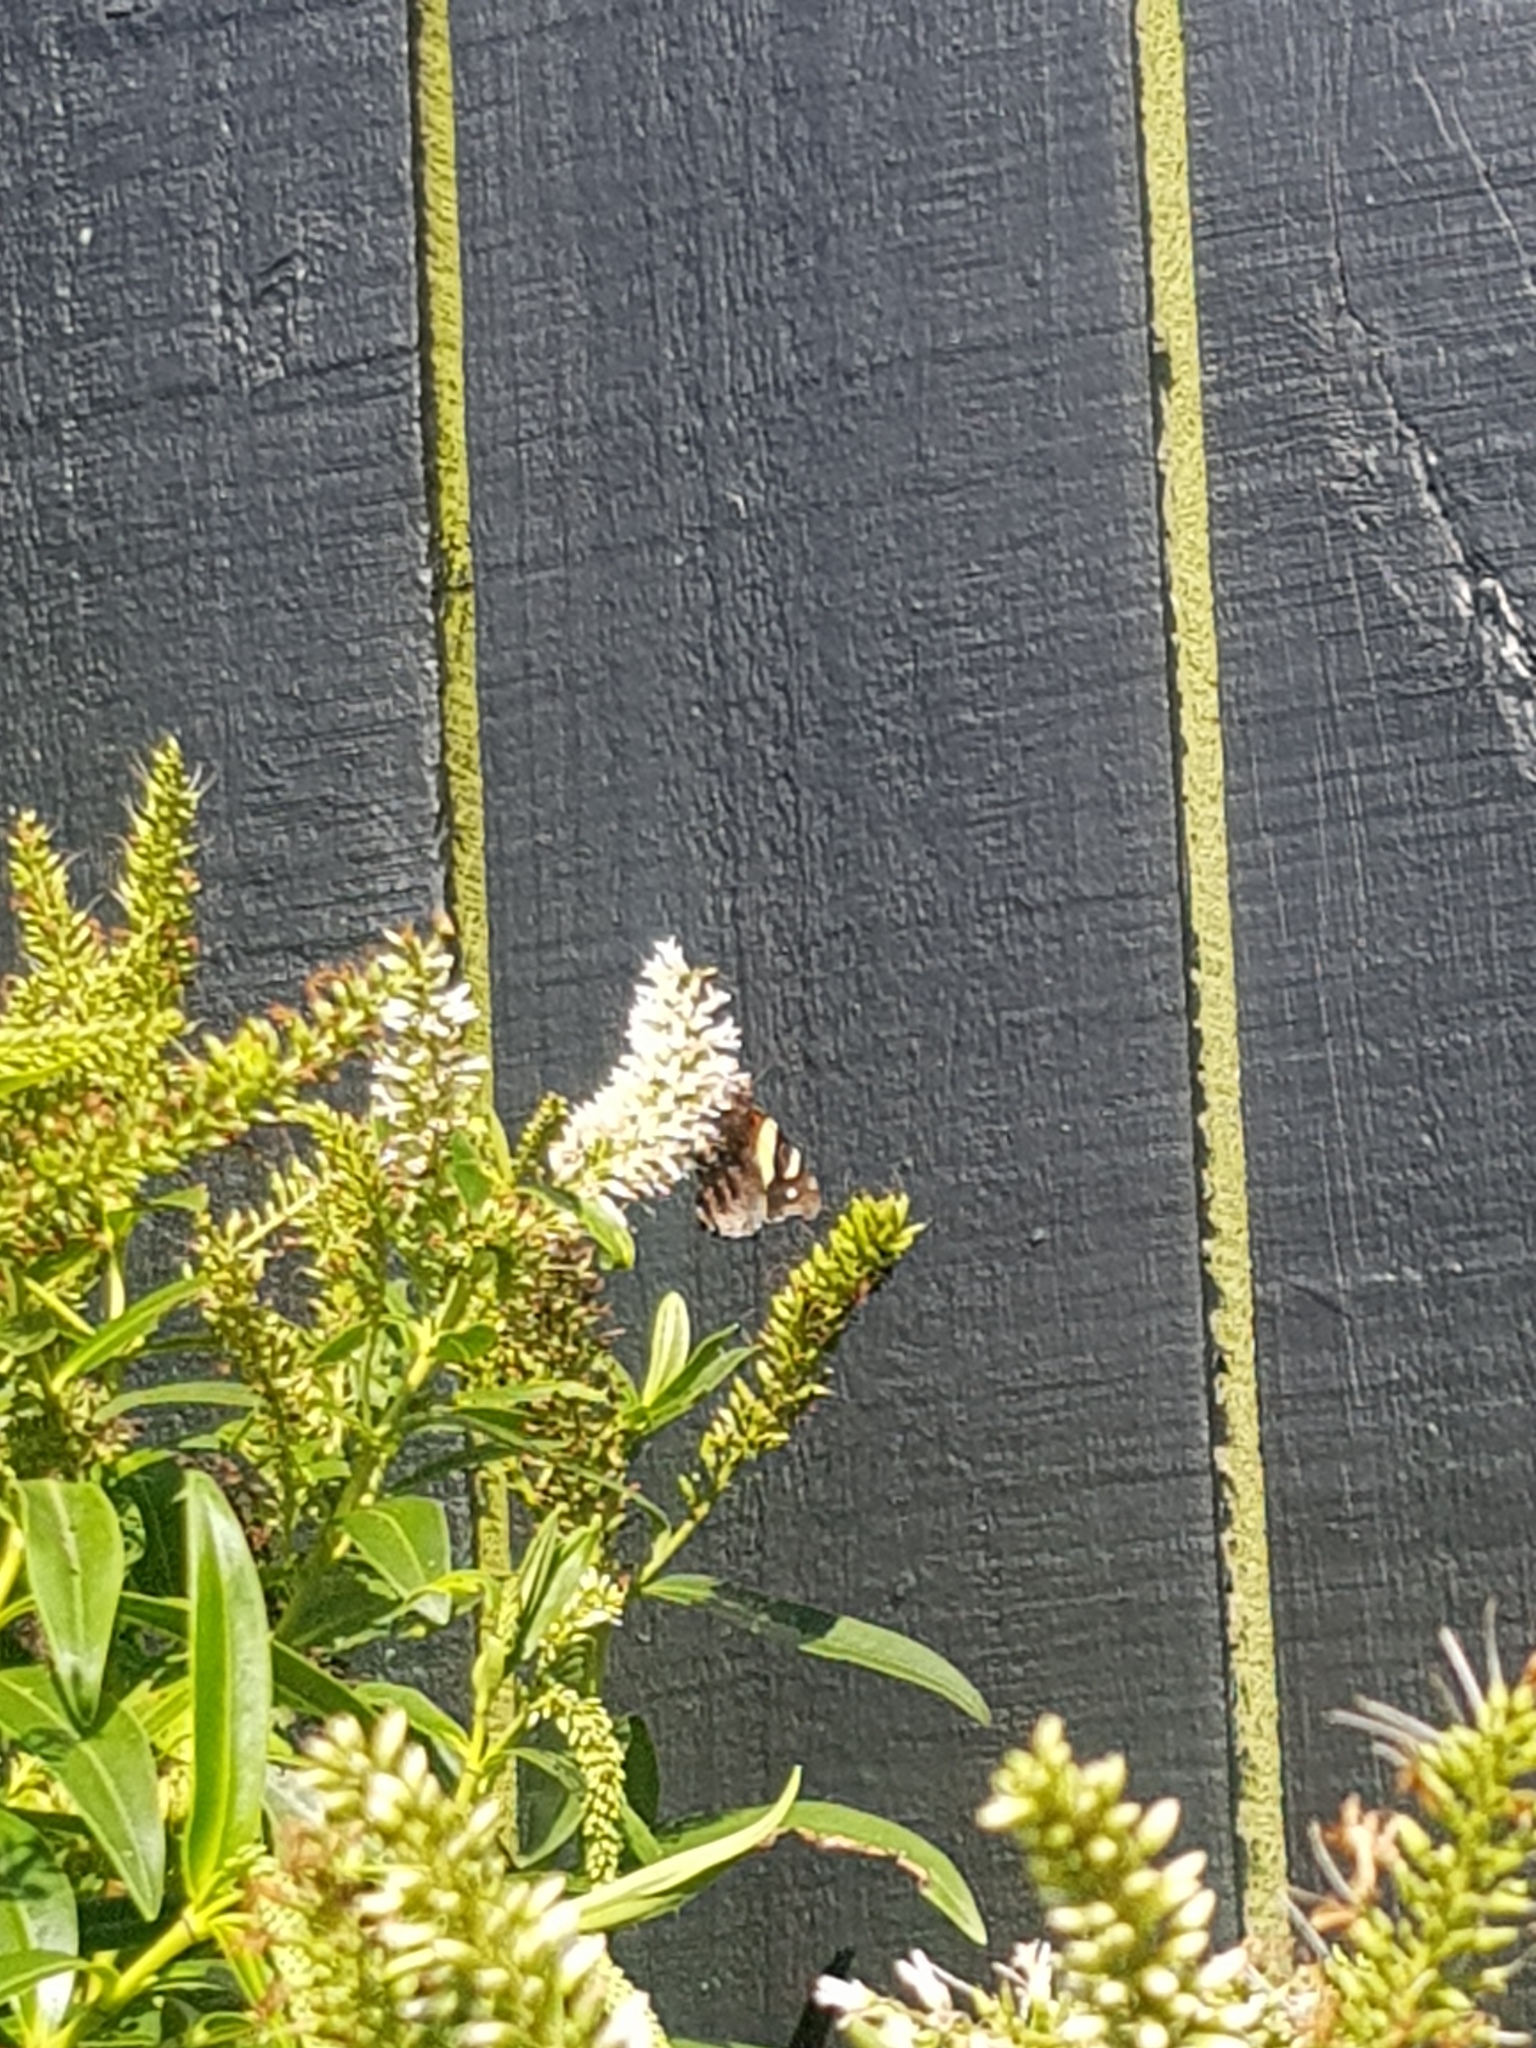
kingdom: Animalia
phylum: Arthropoda
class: Insecta
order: Lepidoptera
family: Nymphalidae
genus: Vanessa
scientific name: Vanessa itea
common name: Yellow admiral
